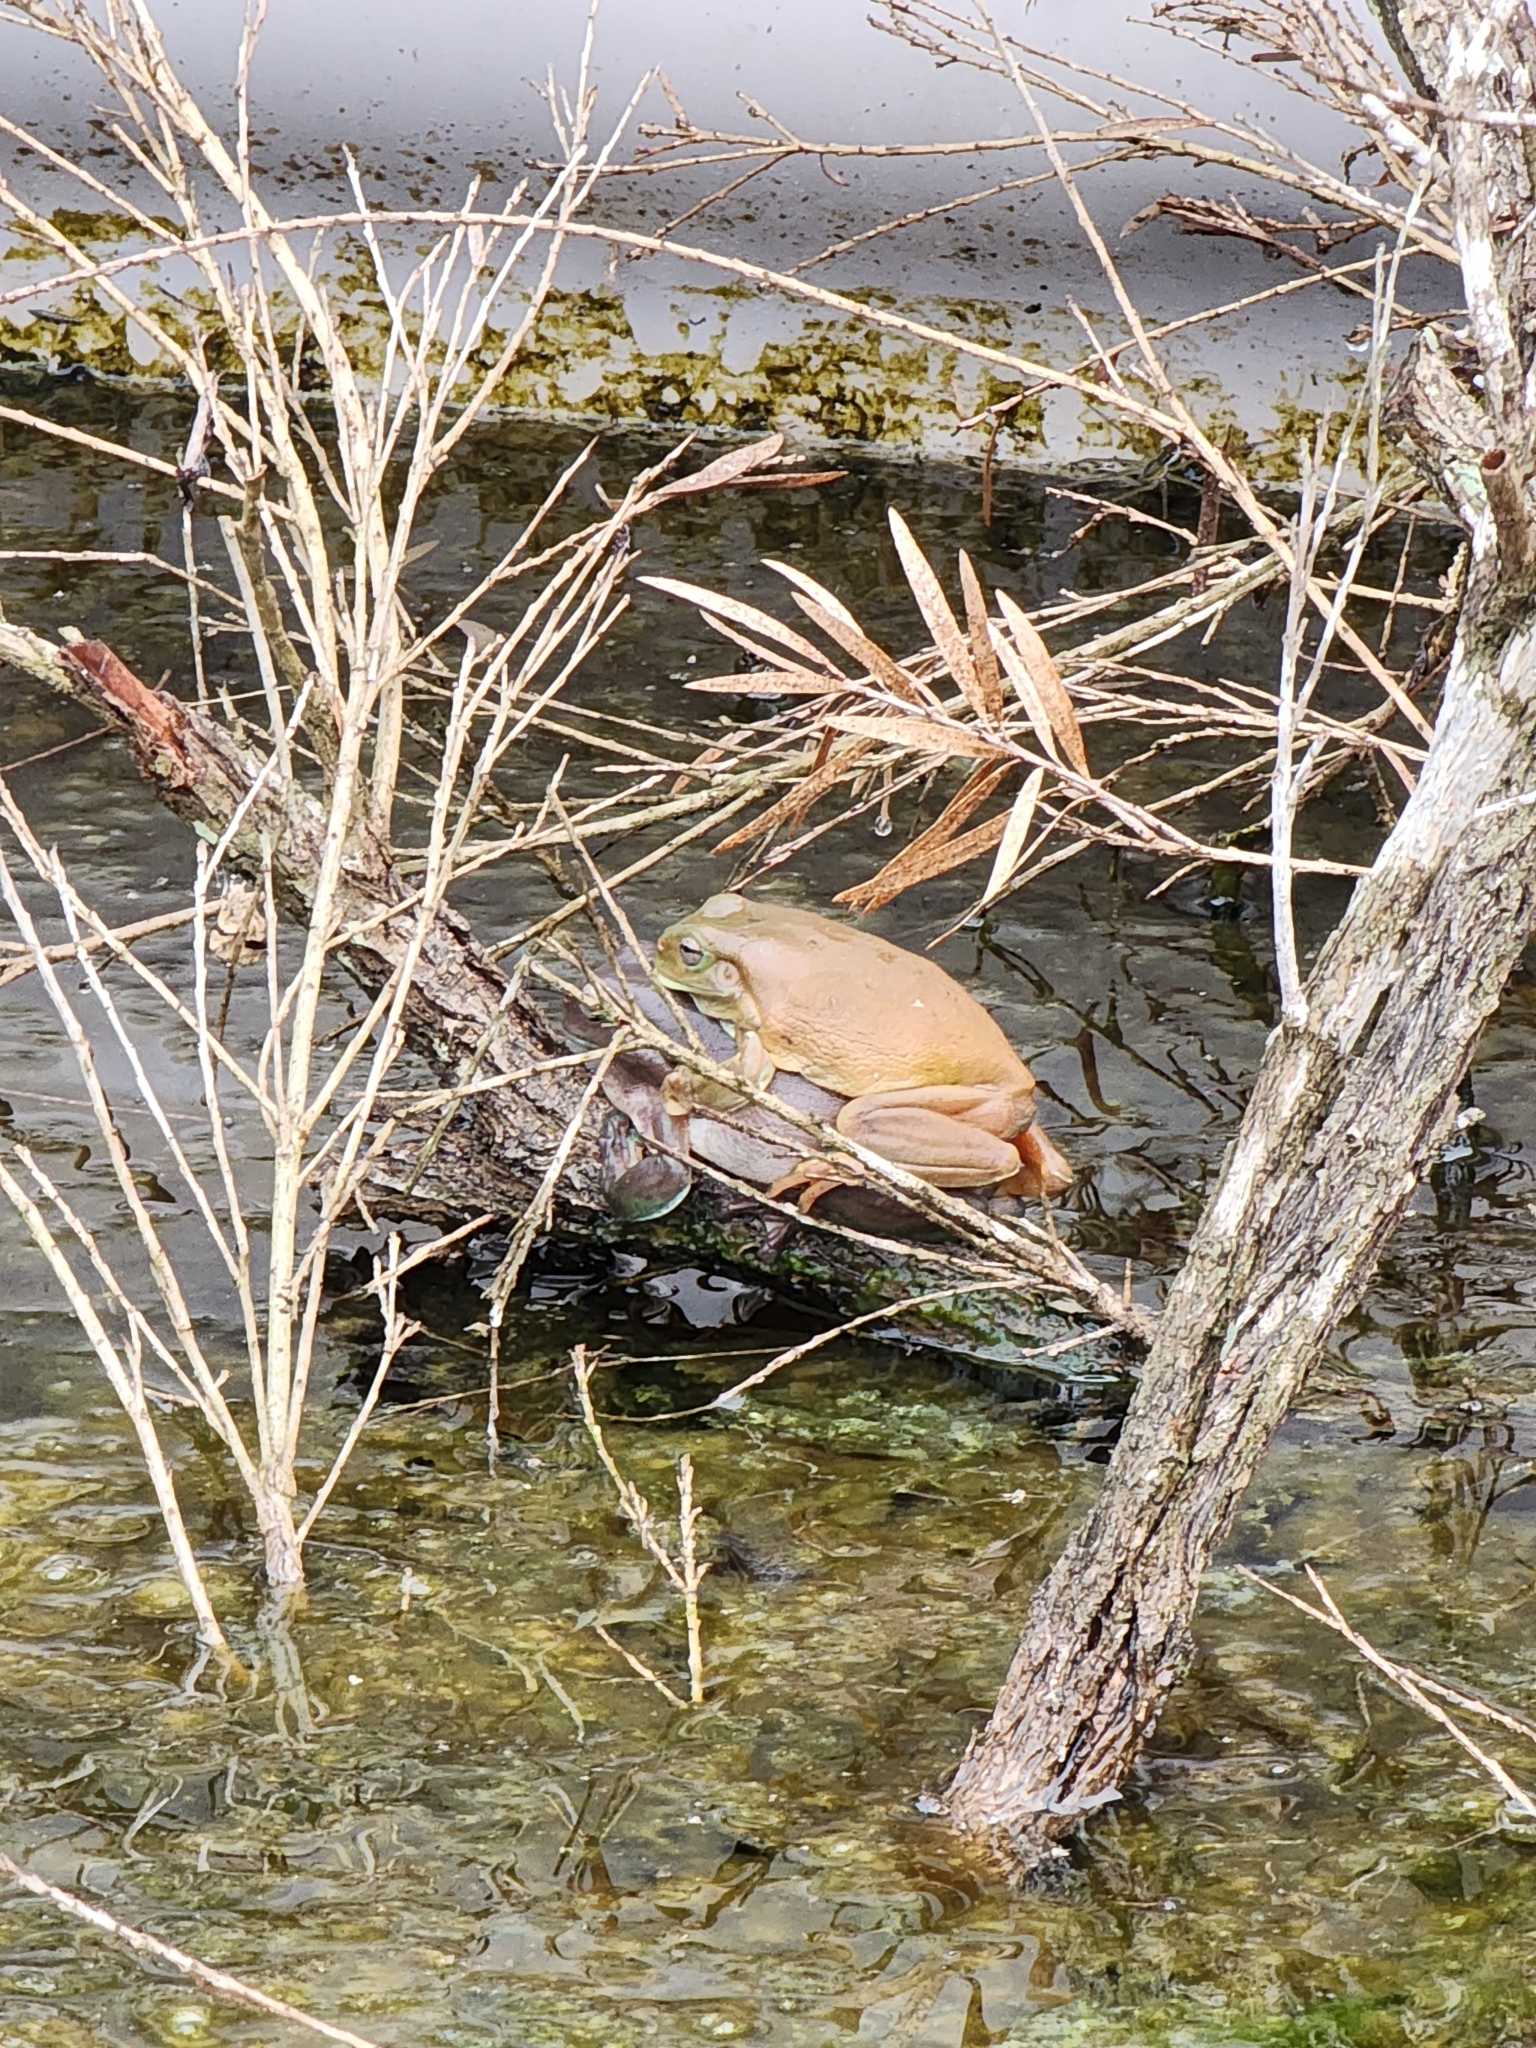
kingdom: Animalia
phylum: Chordata
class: Amphibia
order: Anura
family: Pelodryadidae
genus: Ranoidea
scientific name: Ranoidea caerulea
